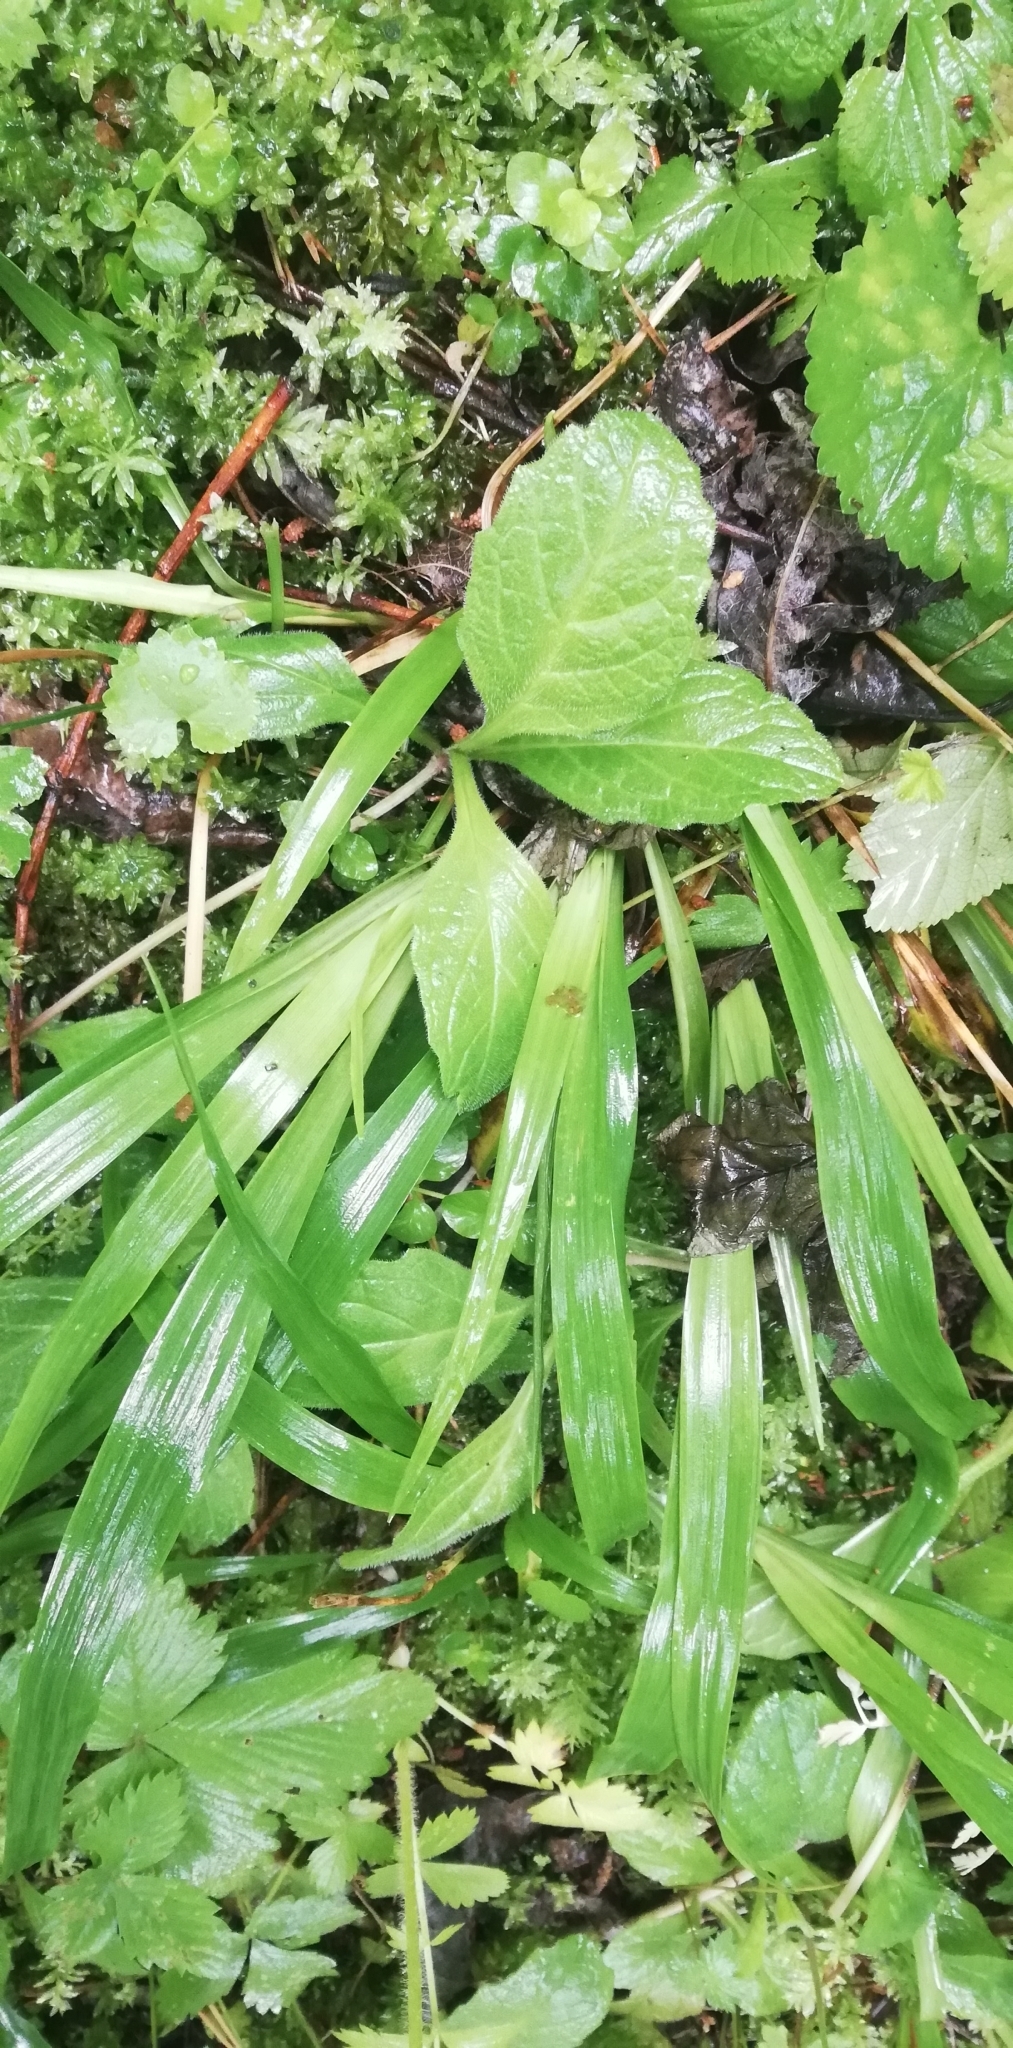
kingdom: Plantae
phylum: Tracheophyta
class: Liliopsida
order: Poales
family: Juncaceae
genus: Luzula
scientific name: Luzula pilosa
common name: Hairy wood-rush
